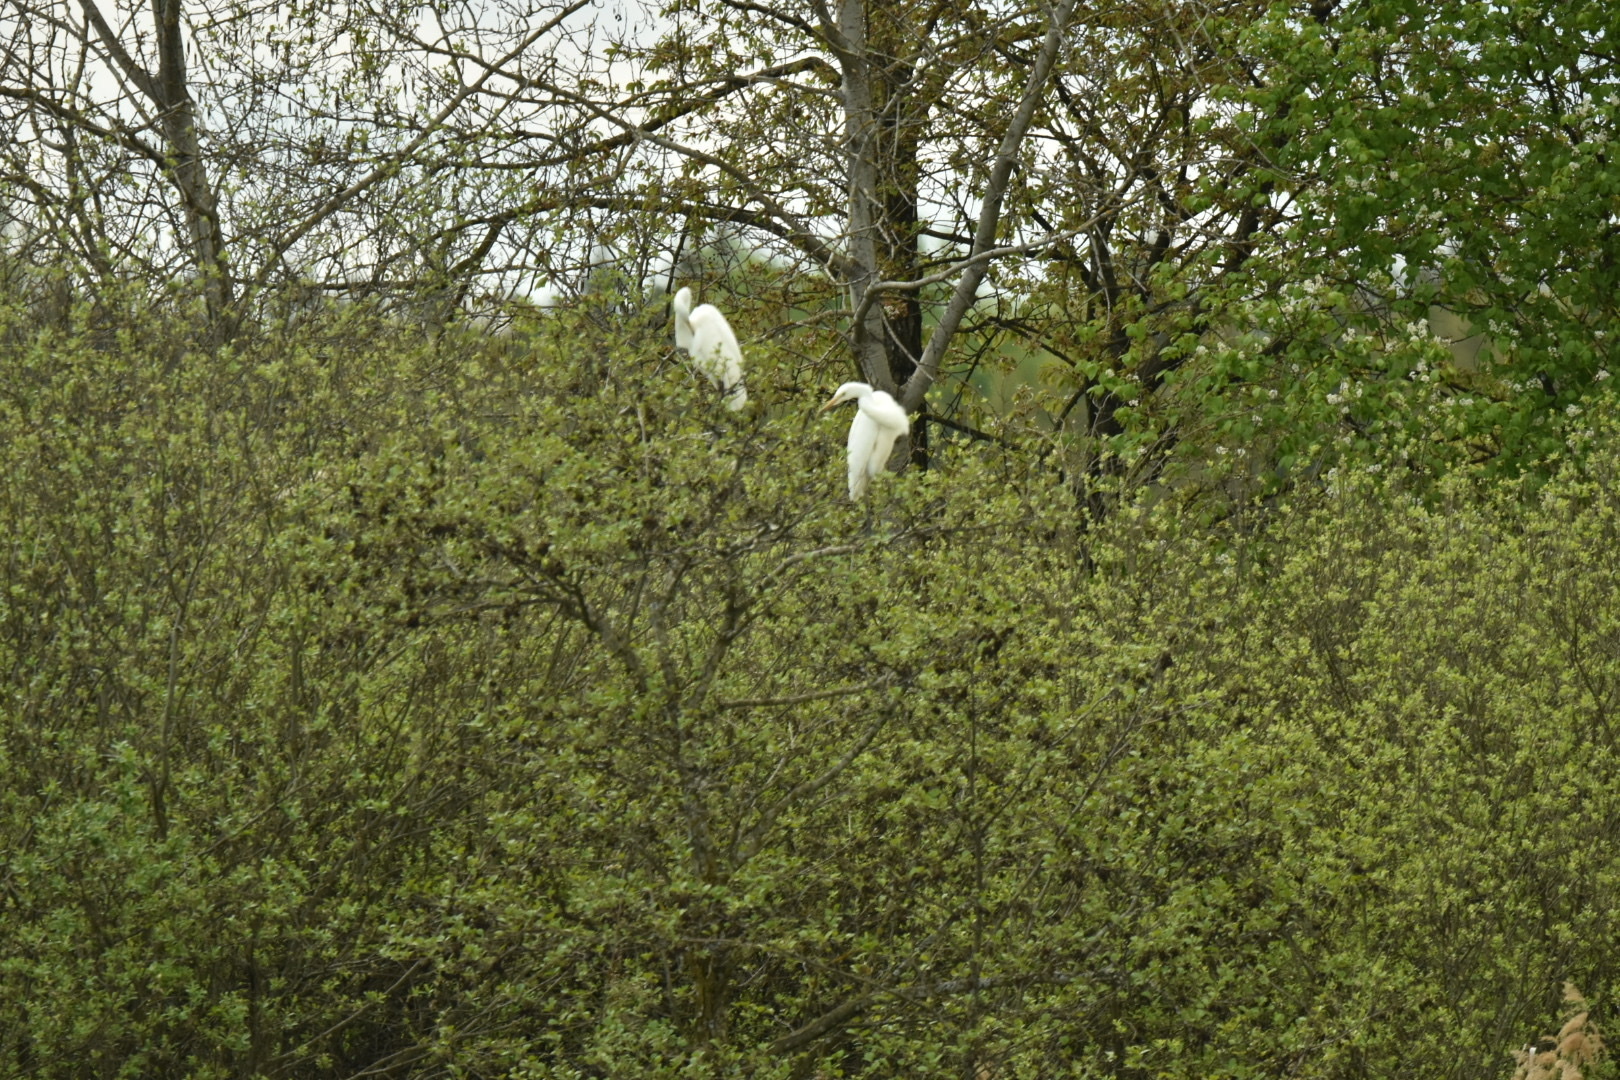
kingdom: Animalia
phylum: Chordata
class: Aves
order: Pelecaniformes
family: Ardeidae
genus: Ardea
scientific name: Ardea alba
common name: Great egret
